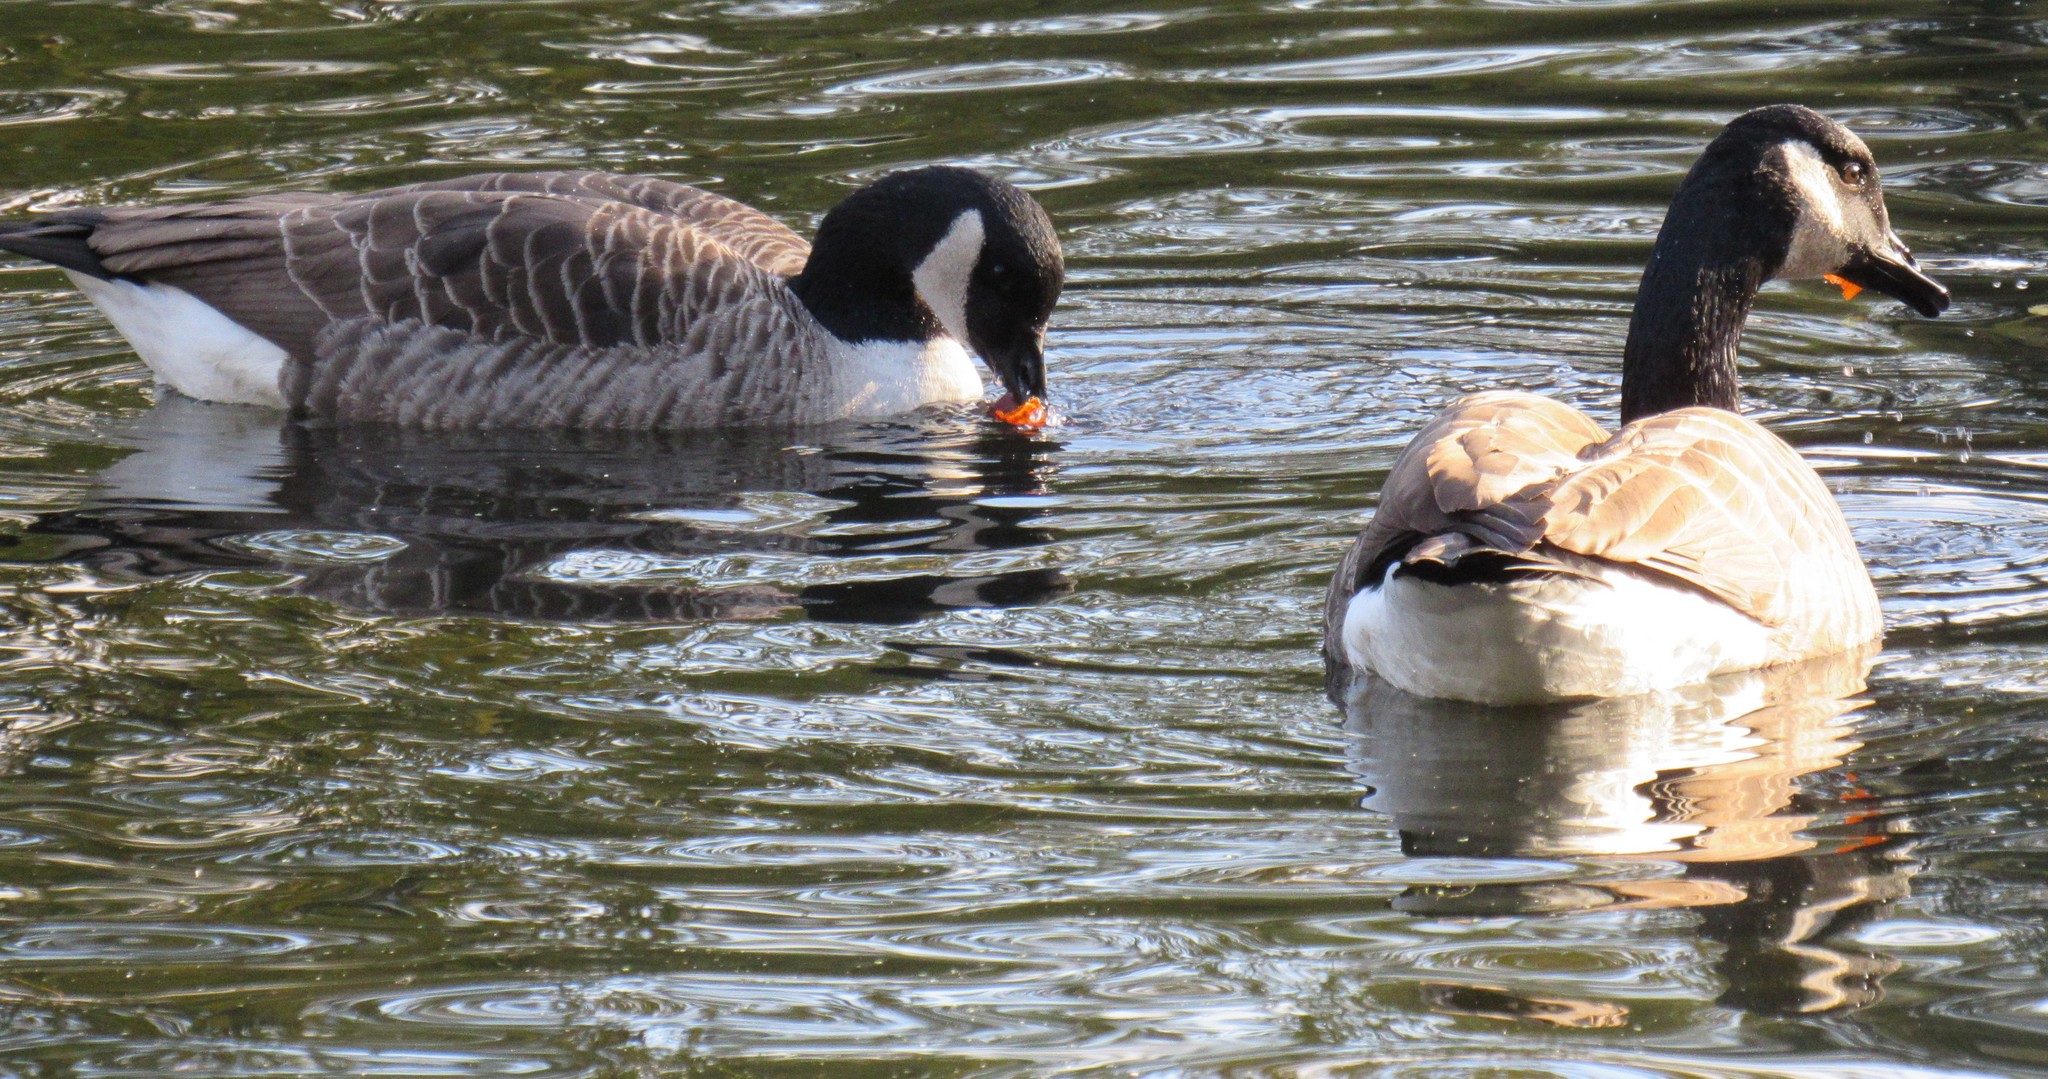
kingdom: Animalia
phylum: Chordata
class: Aves
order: Anseriformes
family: Anatidae
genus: Branta
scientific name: Branta canadensis
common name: Canada goose
